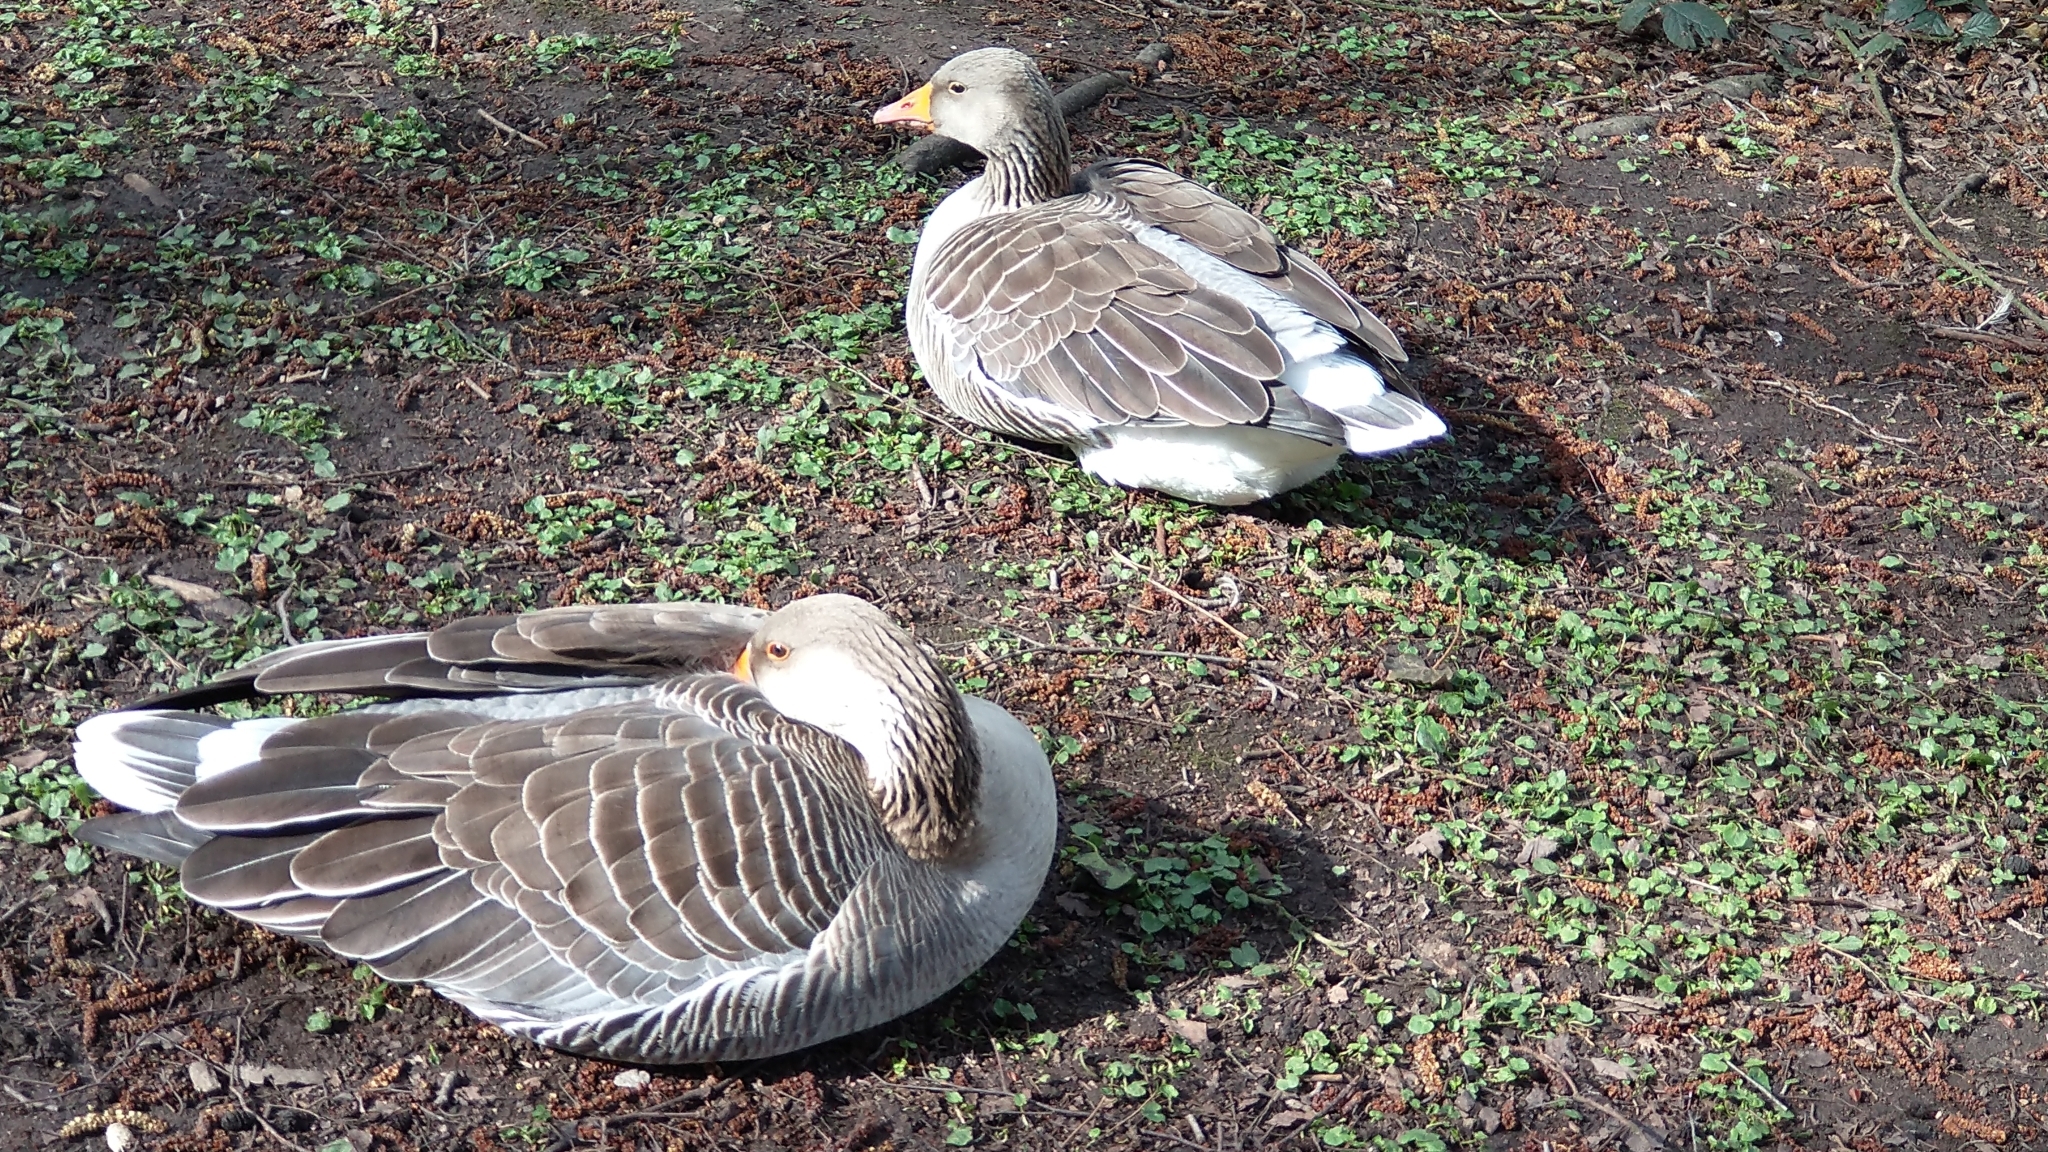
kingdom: Animalia
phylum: Chordata
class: Aves
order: Anseriformes
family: Anatidae
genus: Anser
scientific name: Anser anser
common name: Greylag goose
